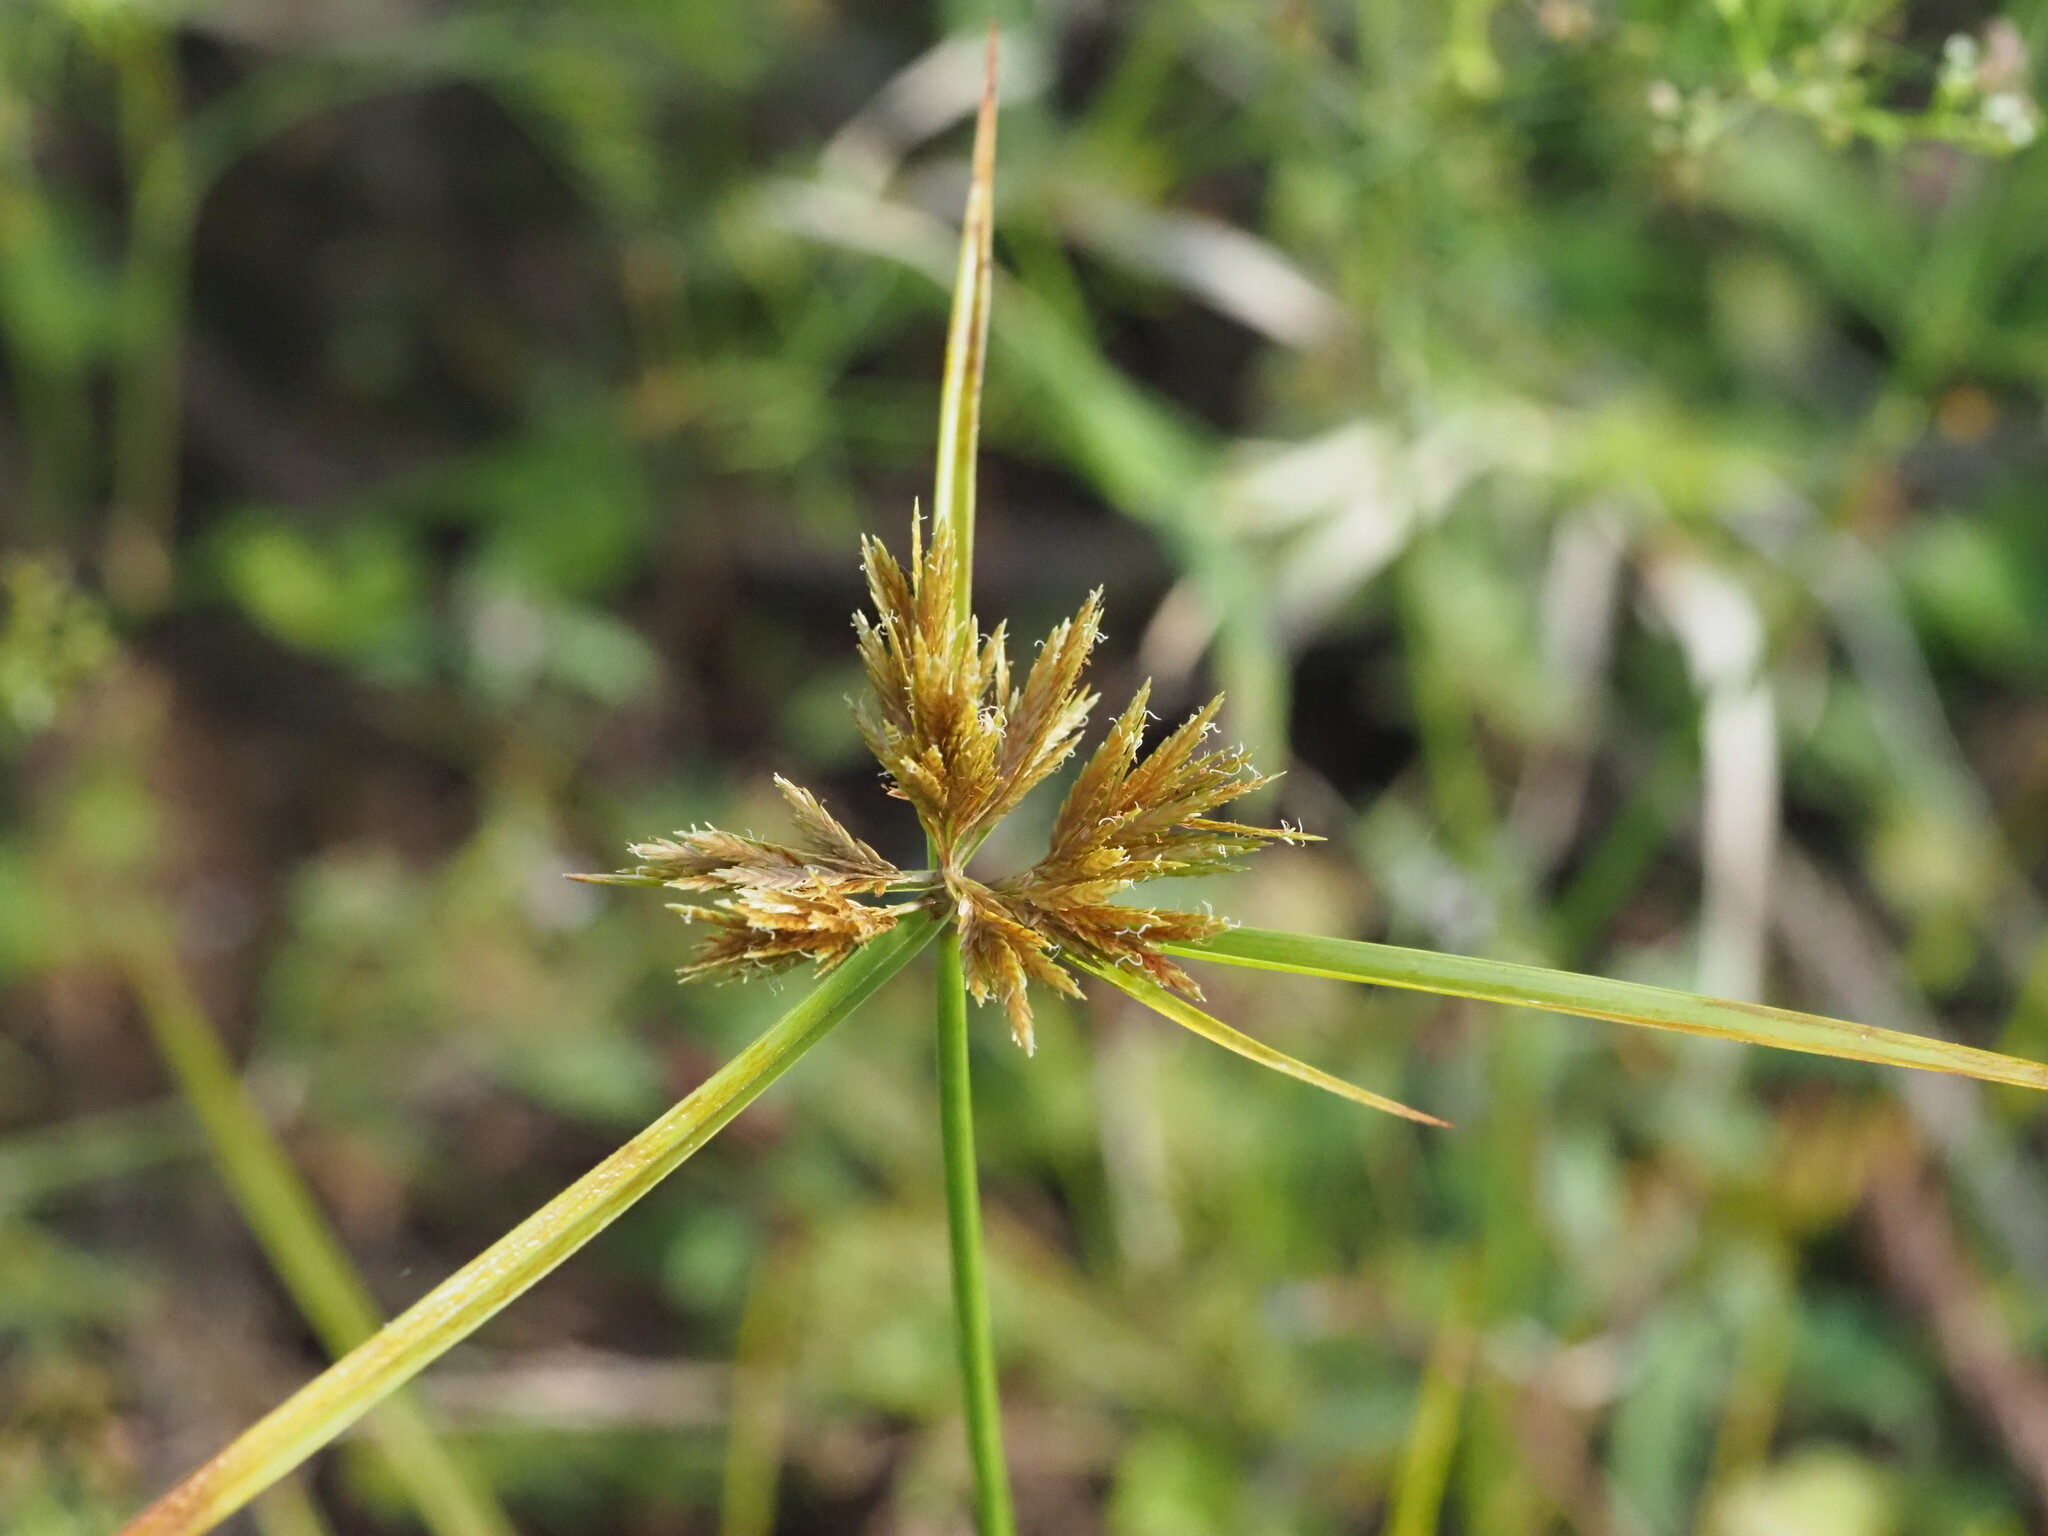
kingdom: Plantae
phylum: Tracheophyta
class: Liliopsida
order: Poales
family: Cyperaceae
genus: Cyperus
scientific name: Cyperus polystachyos
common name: Bunchy flat sedge
